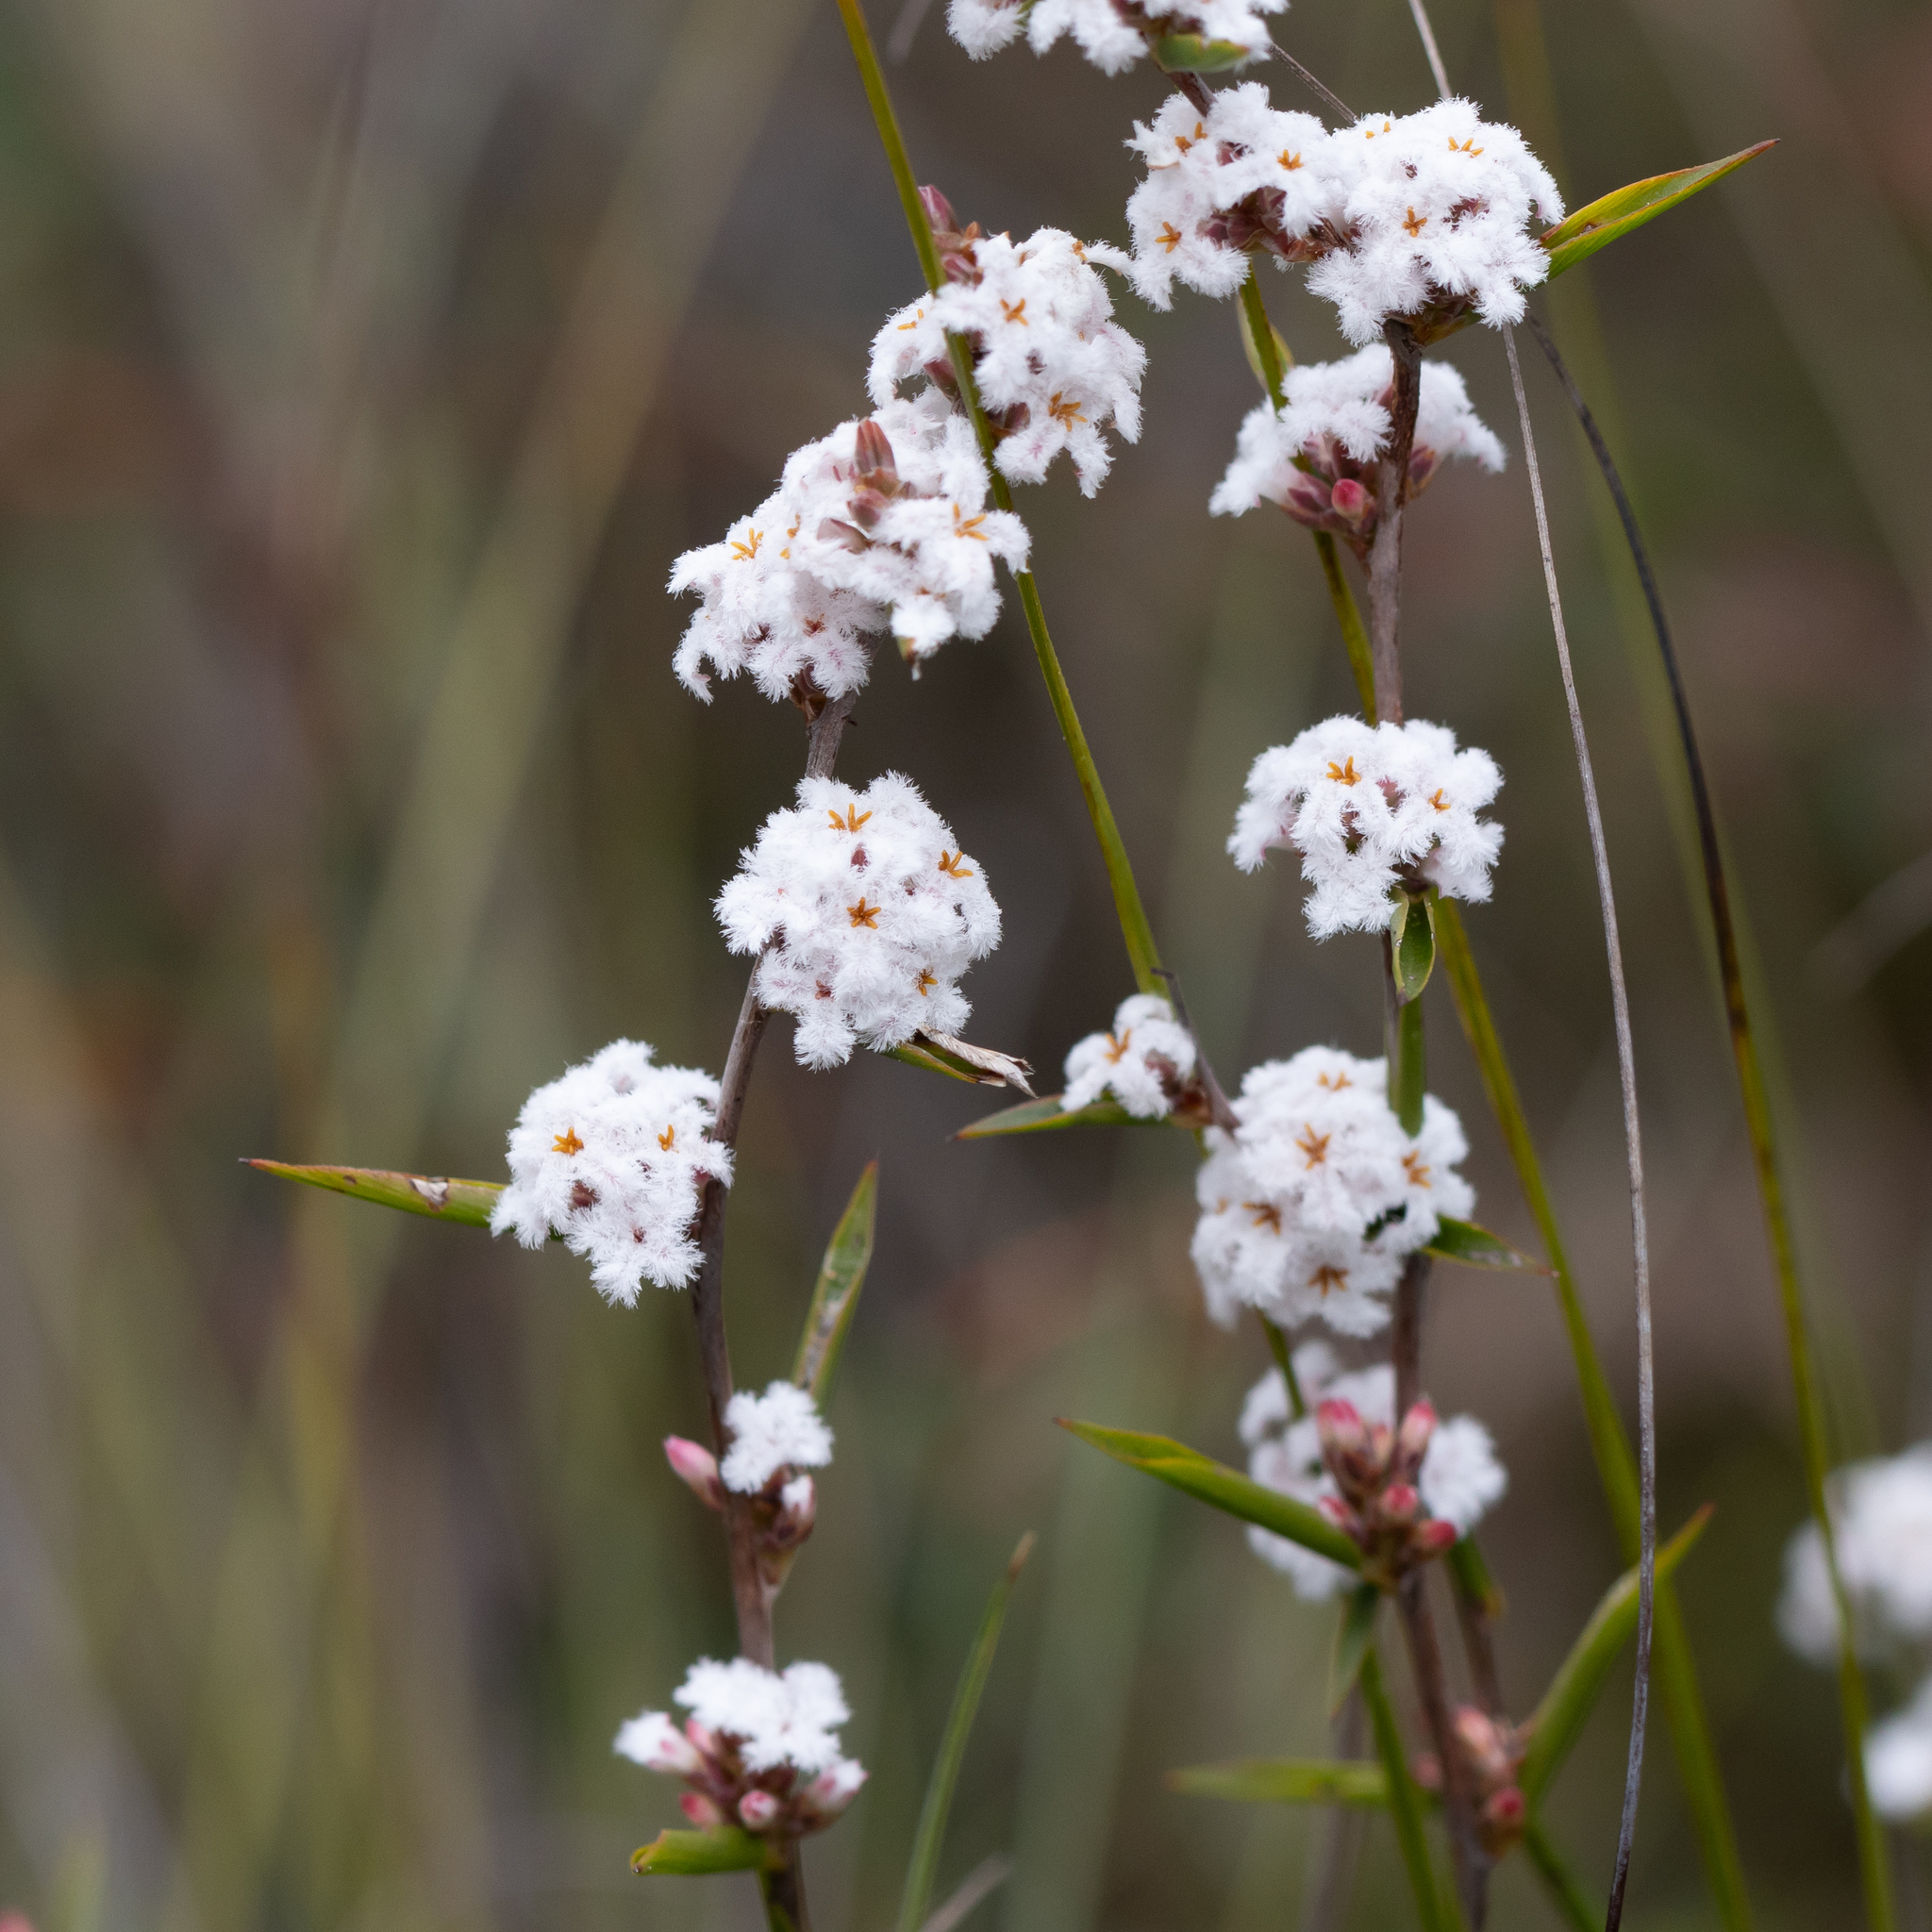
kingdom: Plantae
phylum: Tracheophyta
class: Magnoliopsida
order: Ericales
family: Ericaceae
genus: Leucopogon
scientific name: Leucopogon virgatus
